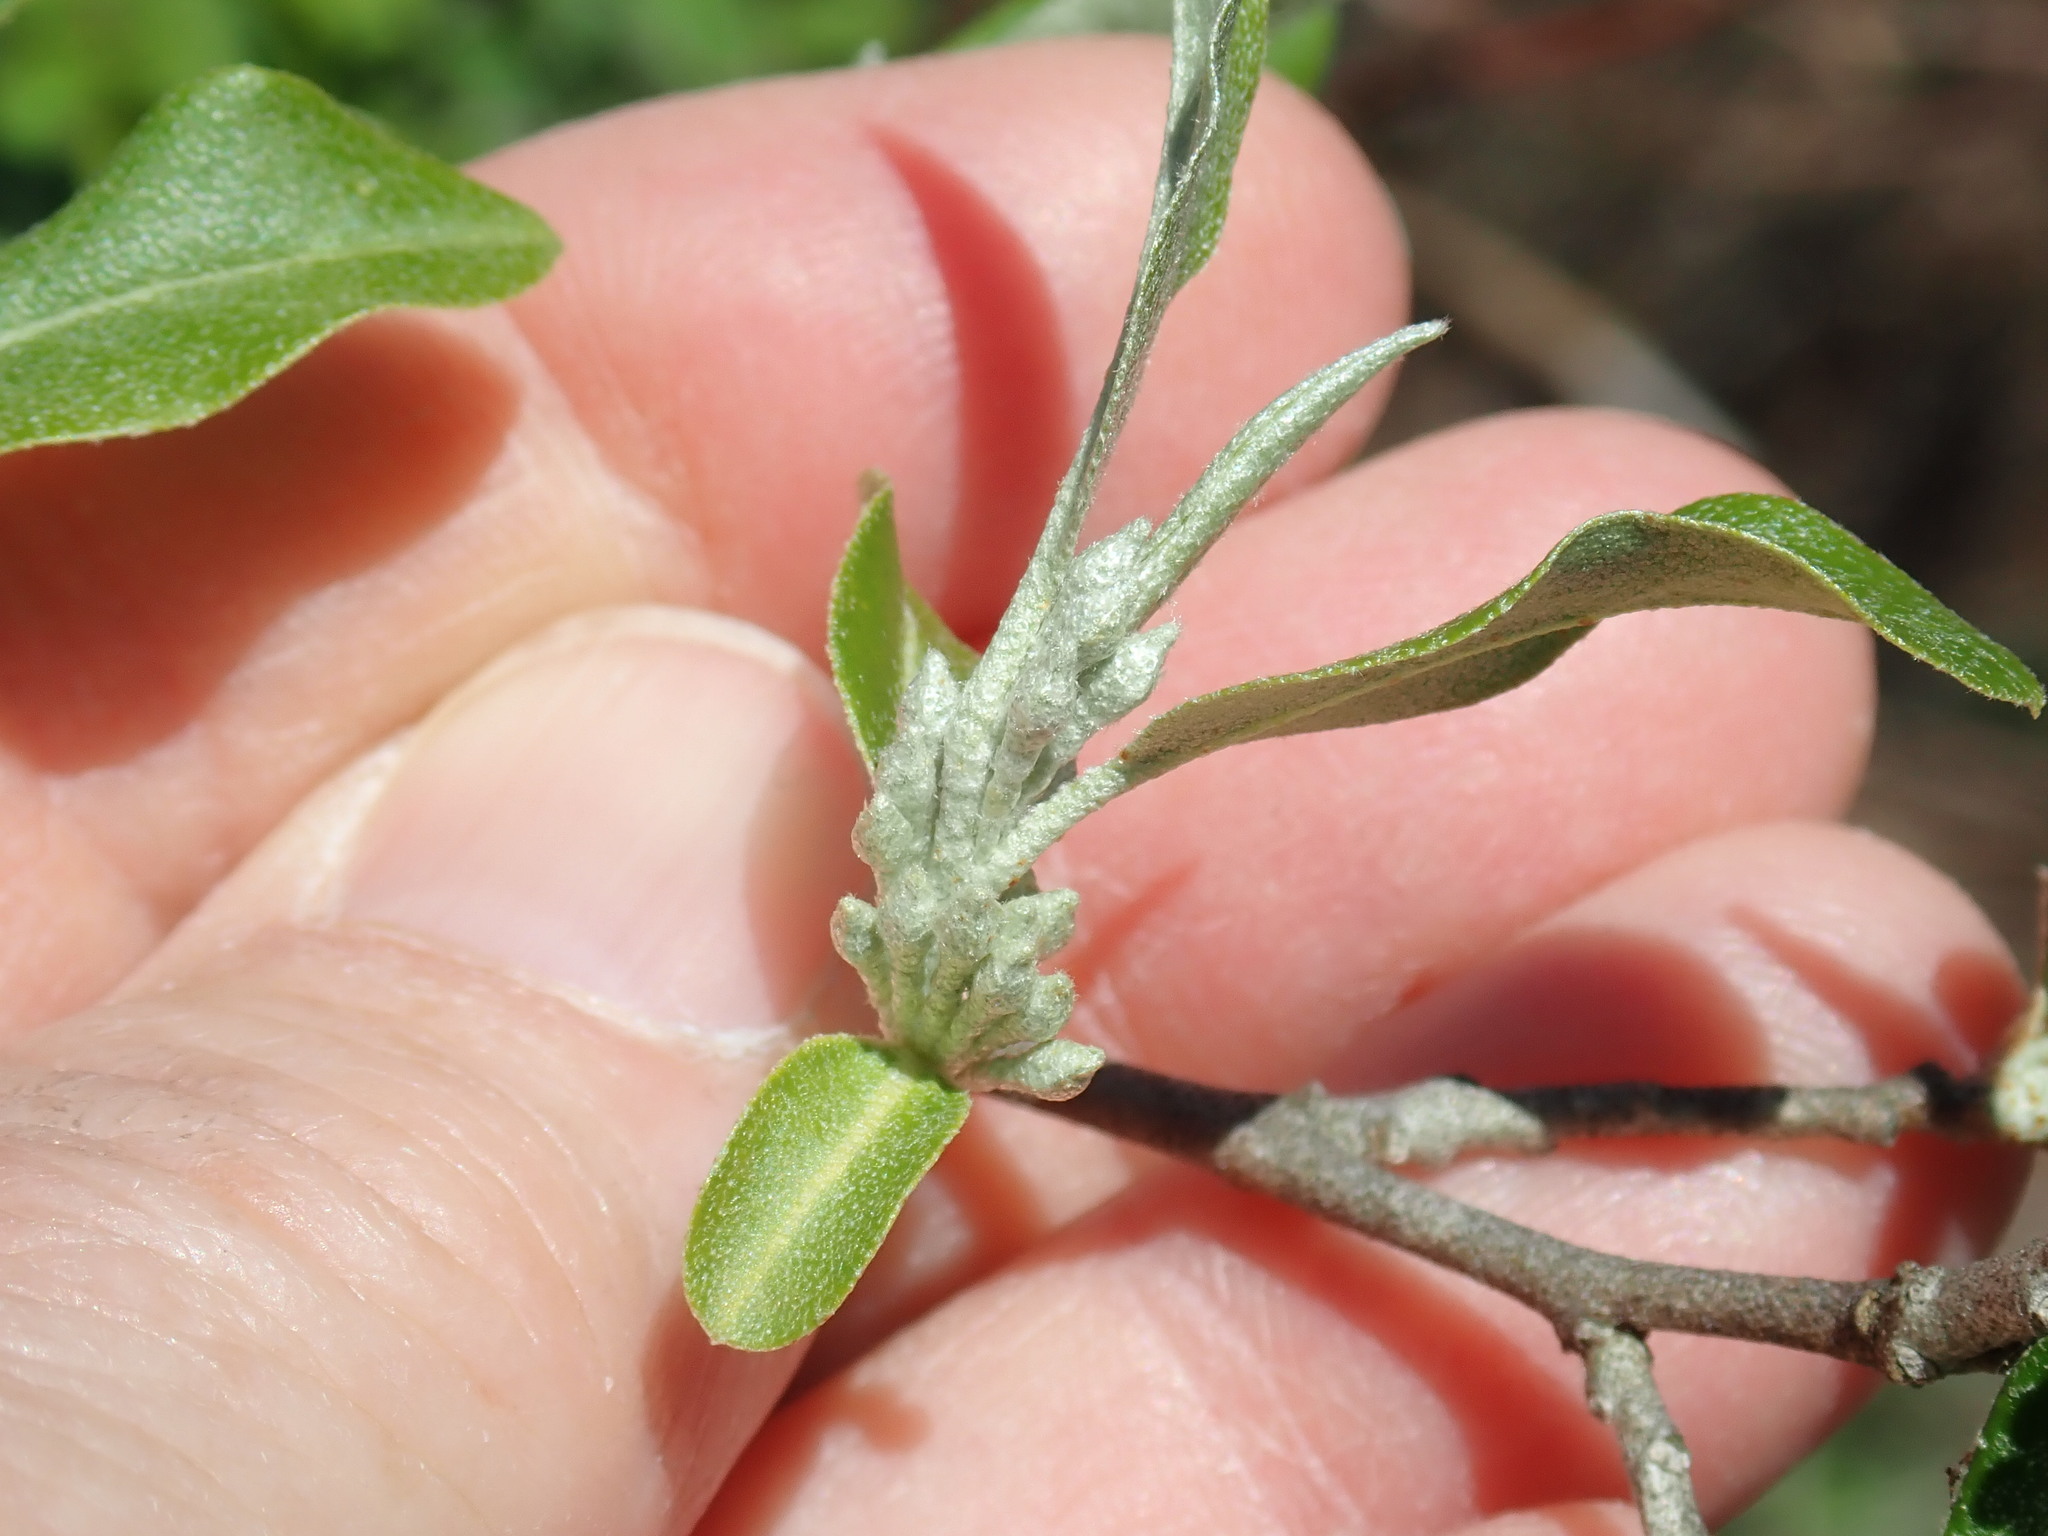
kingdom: Plantae
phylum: Tracheophyta
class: Magnoliopsida
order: Rosales
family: Elaeagnaceae
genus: Elaeagnus
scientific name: Elaeagnus umbellata
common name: Autumn olive
